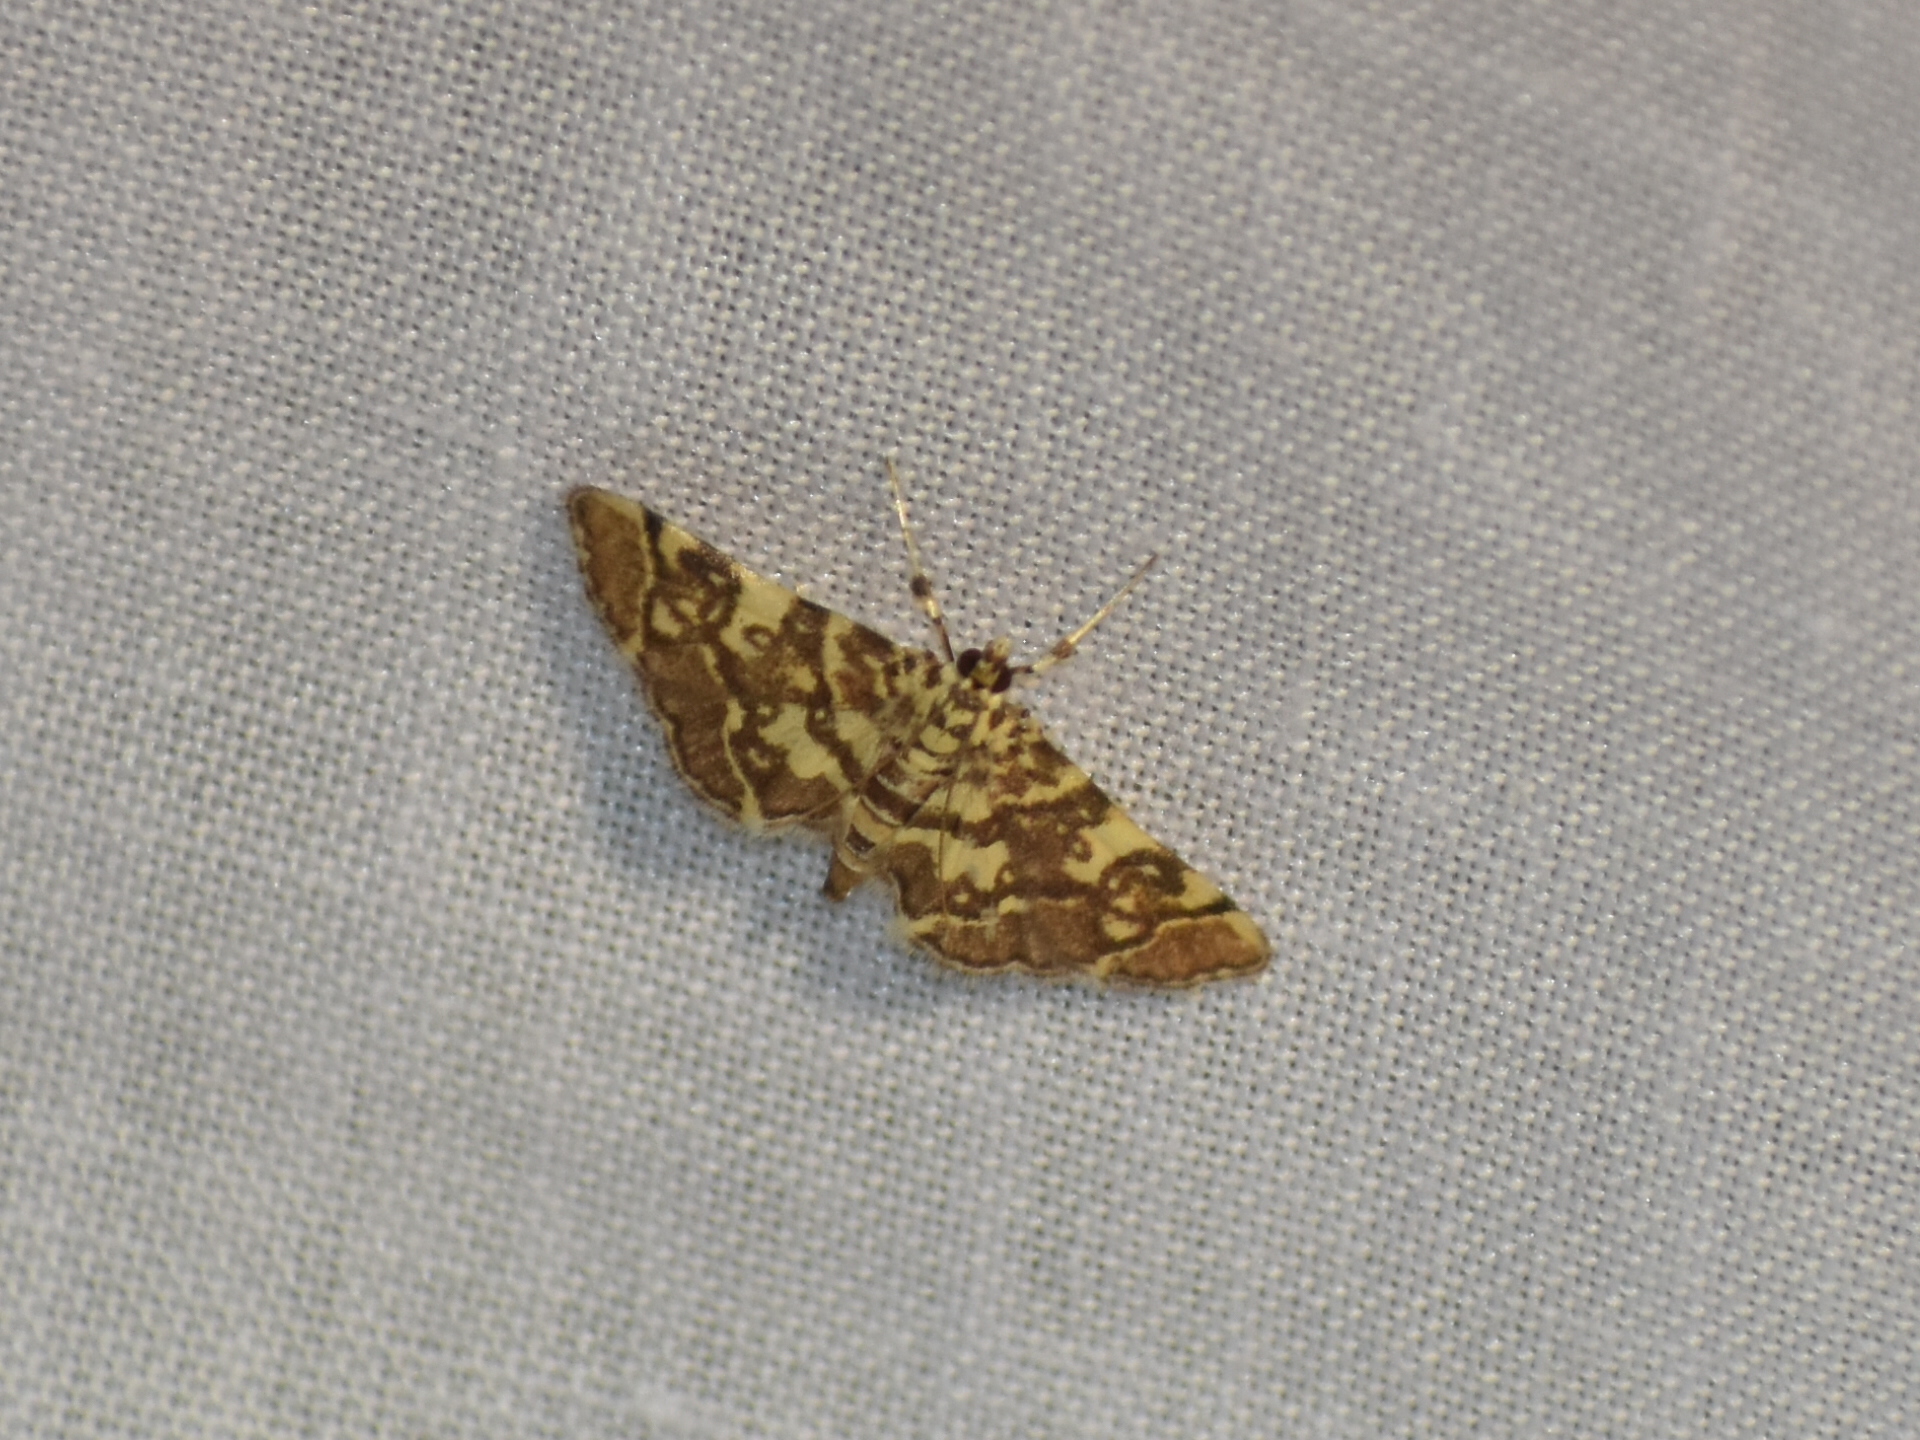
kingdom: Animalia
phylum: Arthropoda
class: Insecta
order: Lepidoptera
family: Crambidae
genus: Apogeshna
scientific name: Apogeshna stenialis
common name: Checkered apogeshna moth
